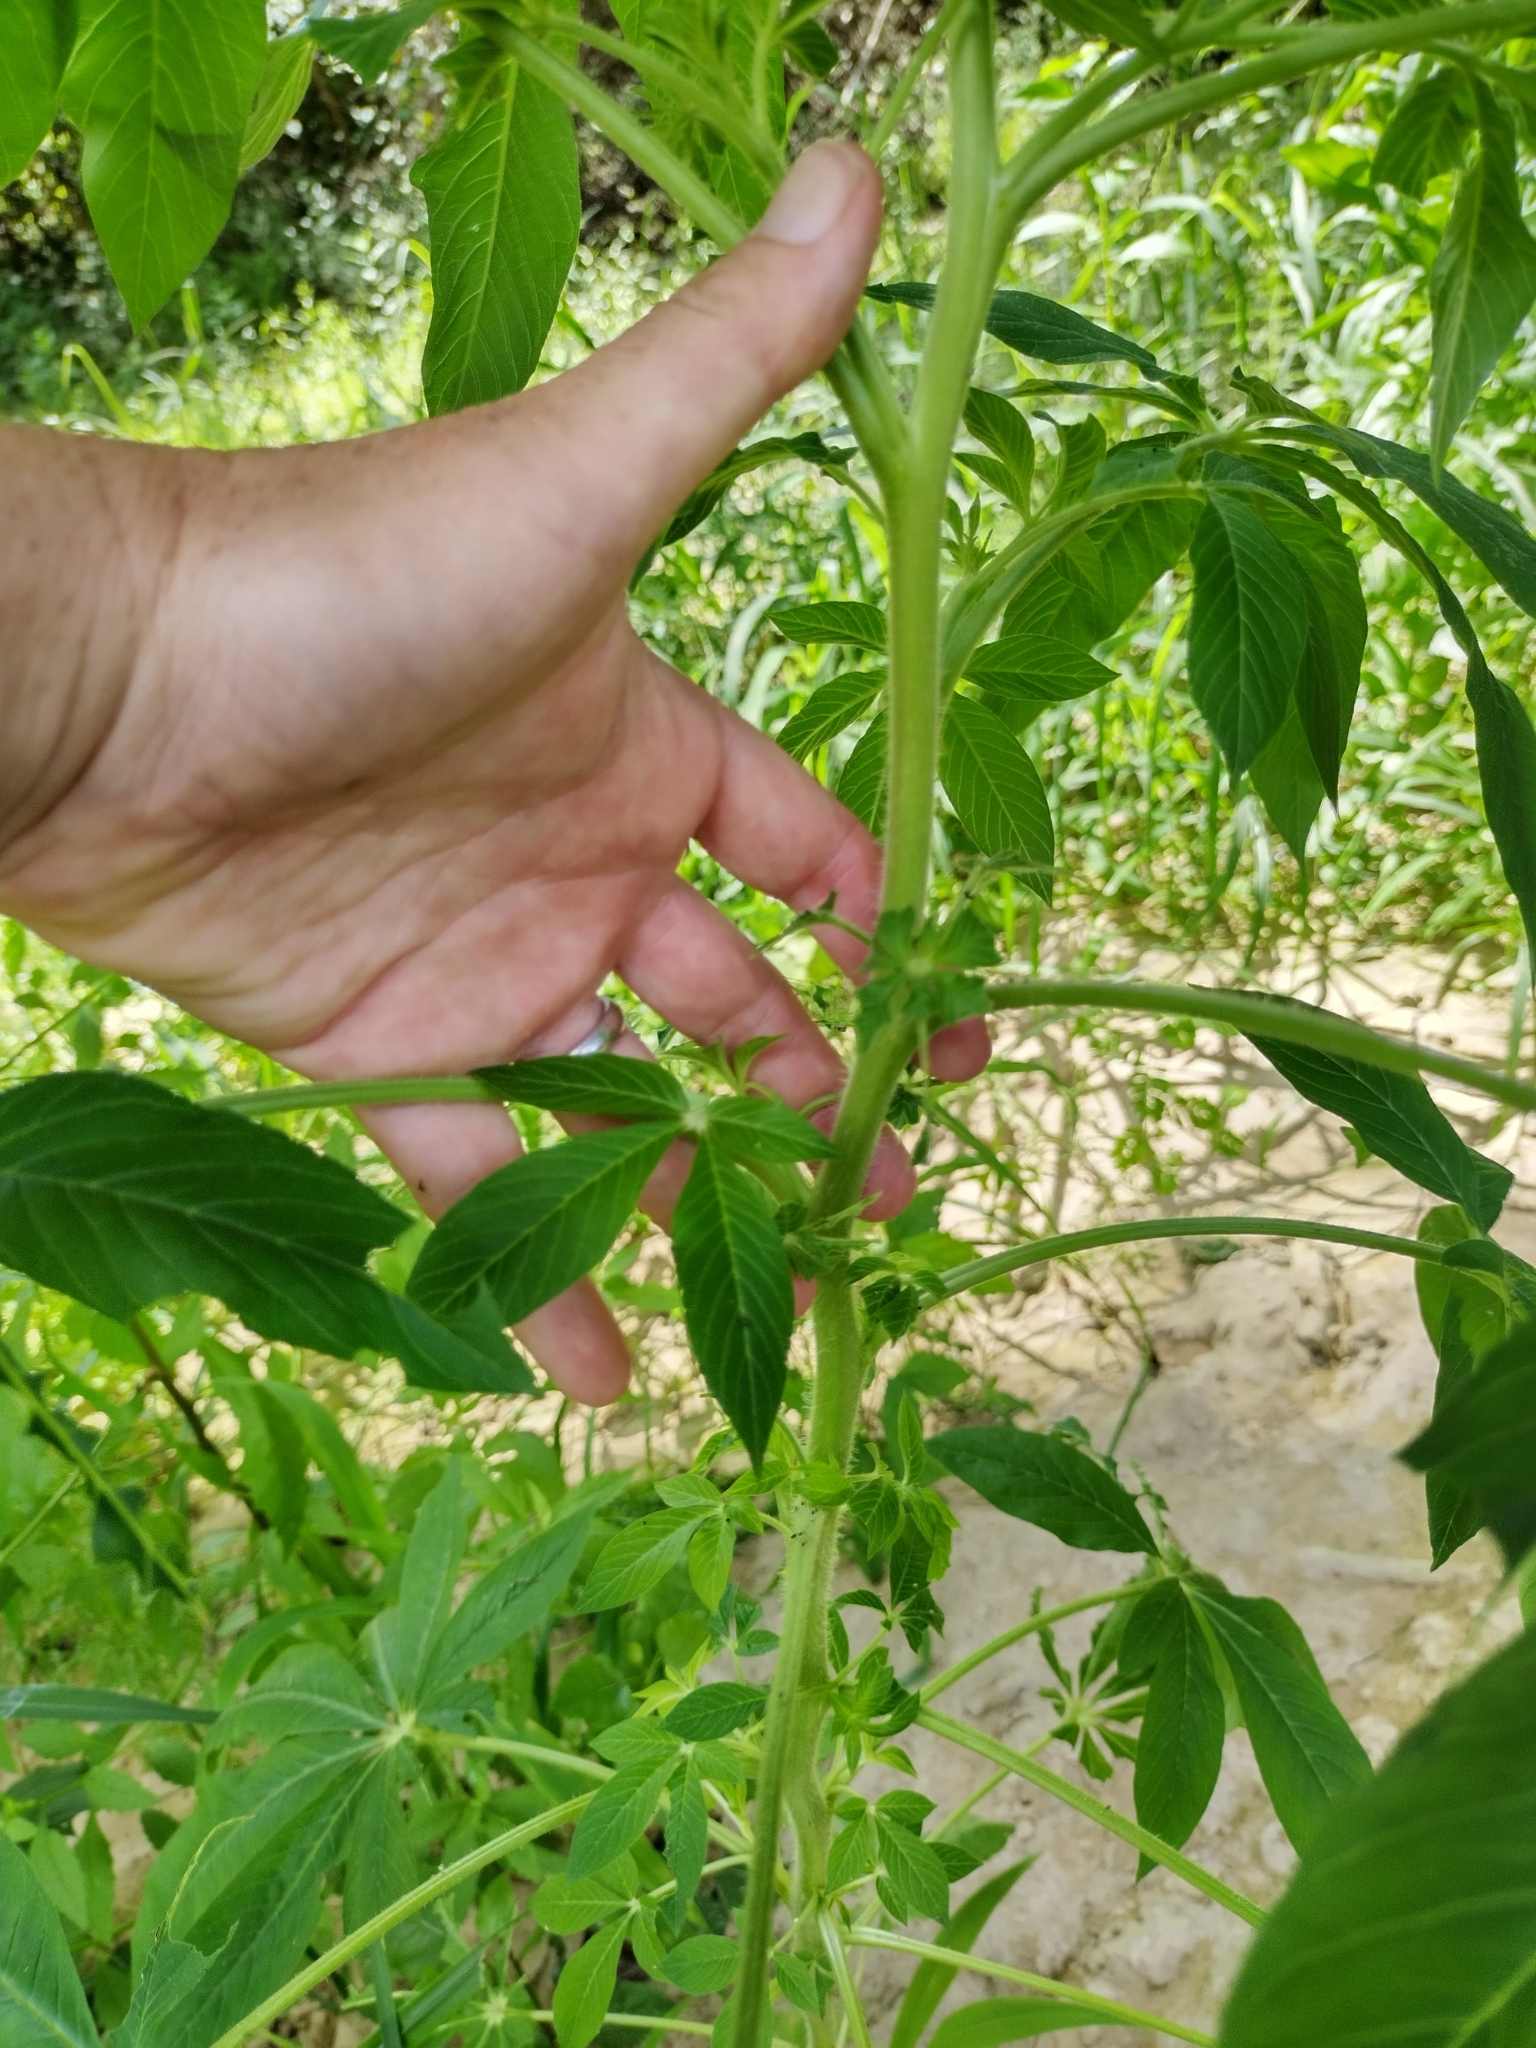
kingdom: Plantae
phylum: Tracheophyta
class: Magnoliopsida
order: Brassicales
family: Cleomaceae
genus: Tarenaya
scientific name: Tarenaya houtteana
